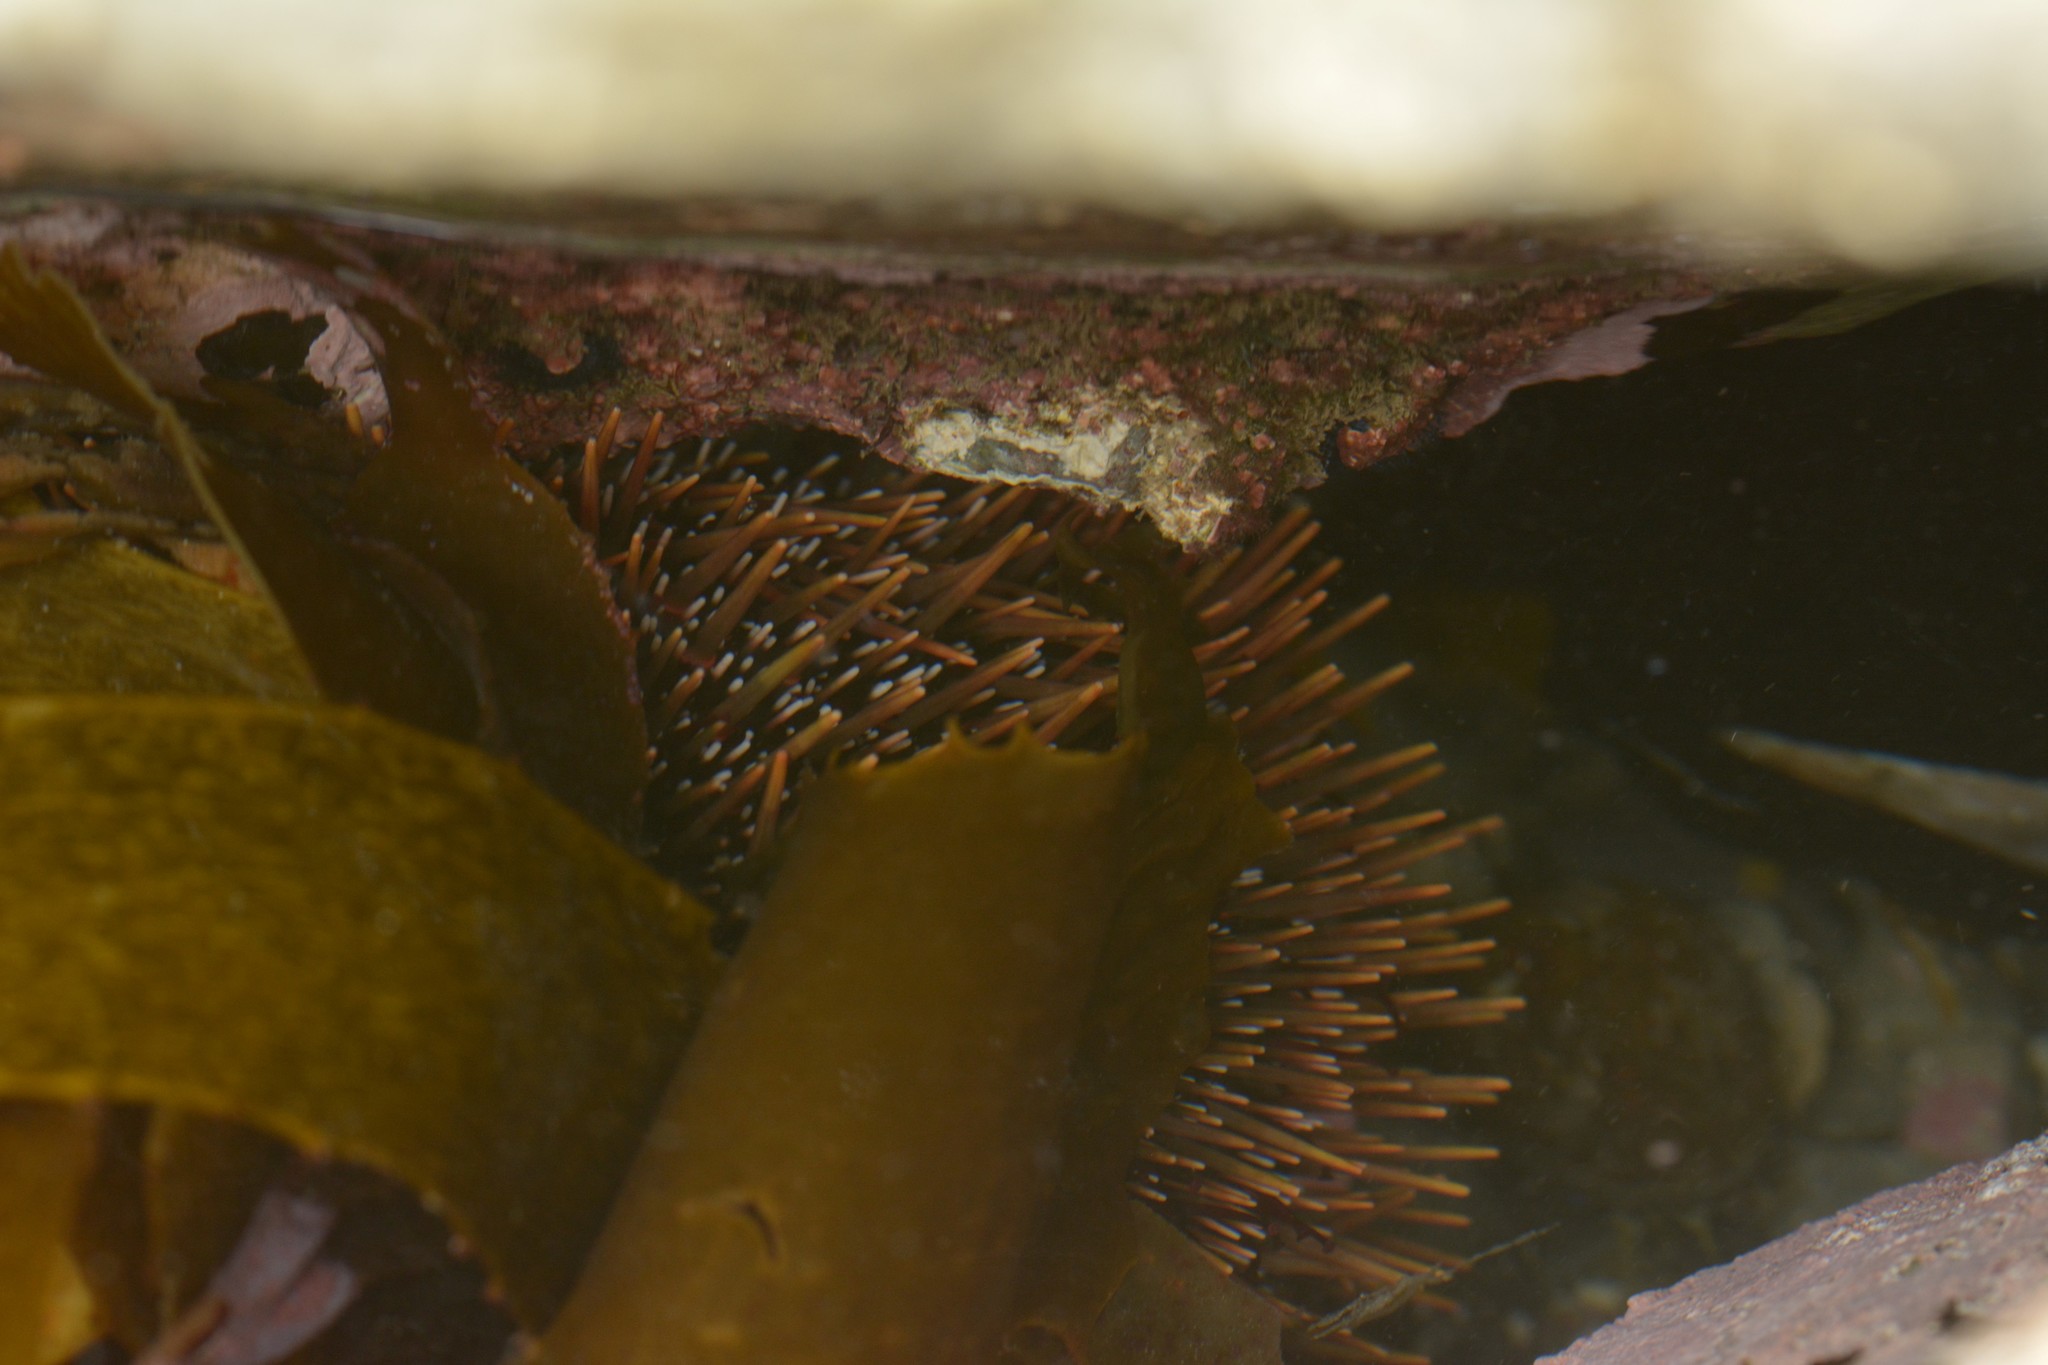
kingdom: Animalia
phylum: Echinodermata
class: Echinoidea
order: Camarodonta
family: Echinometridae
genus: Evechinus
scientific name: Evechinus chloroticus
